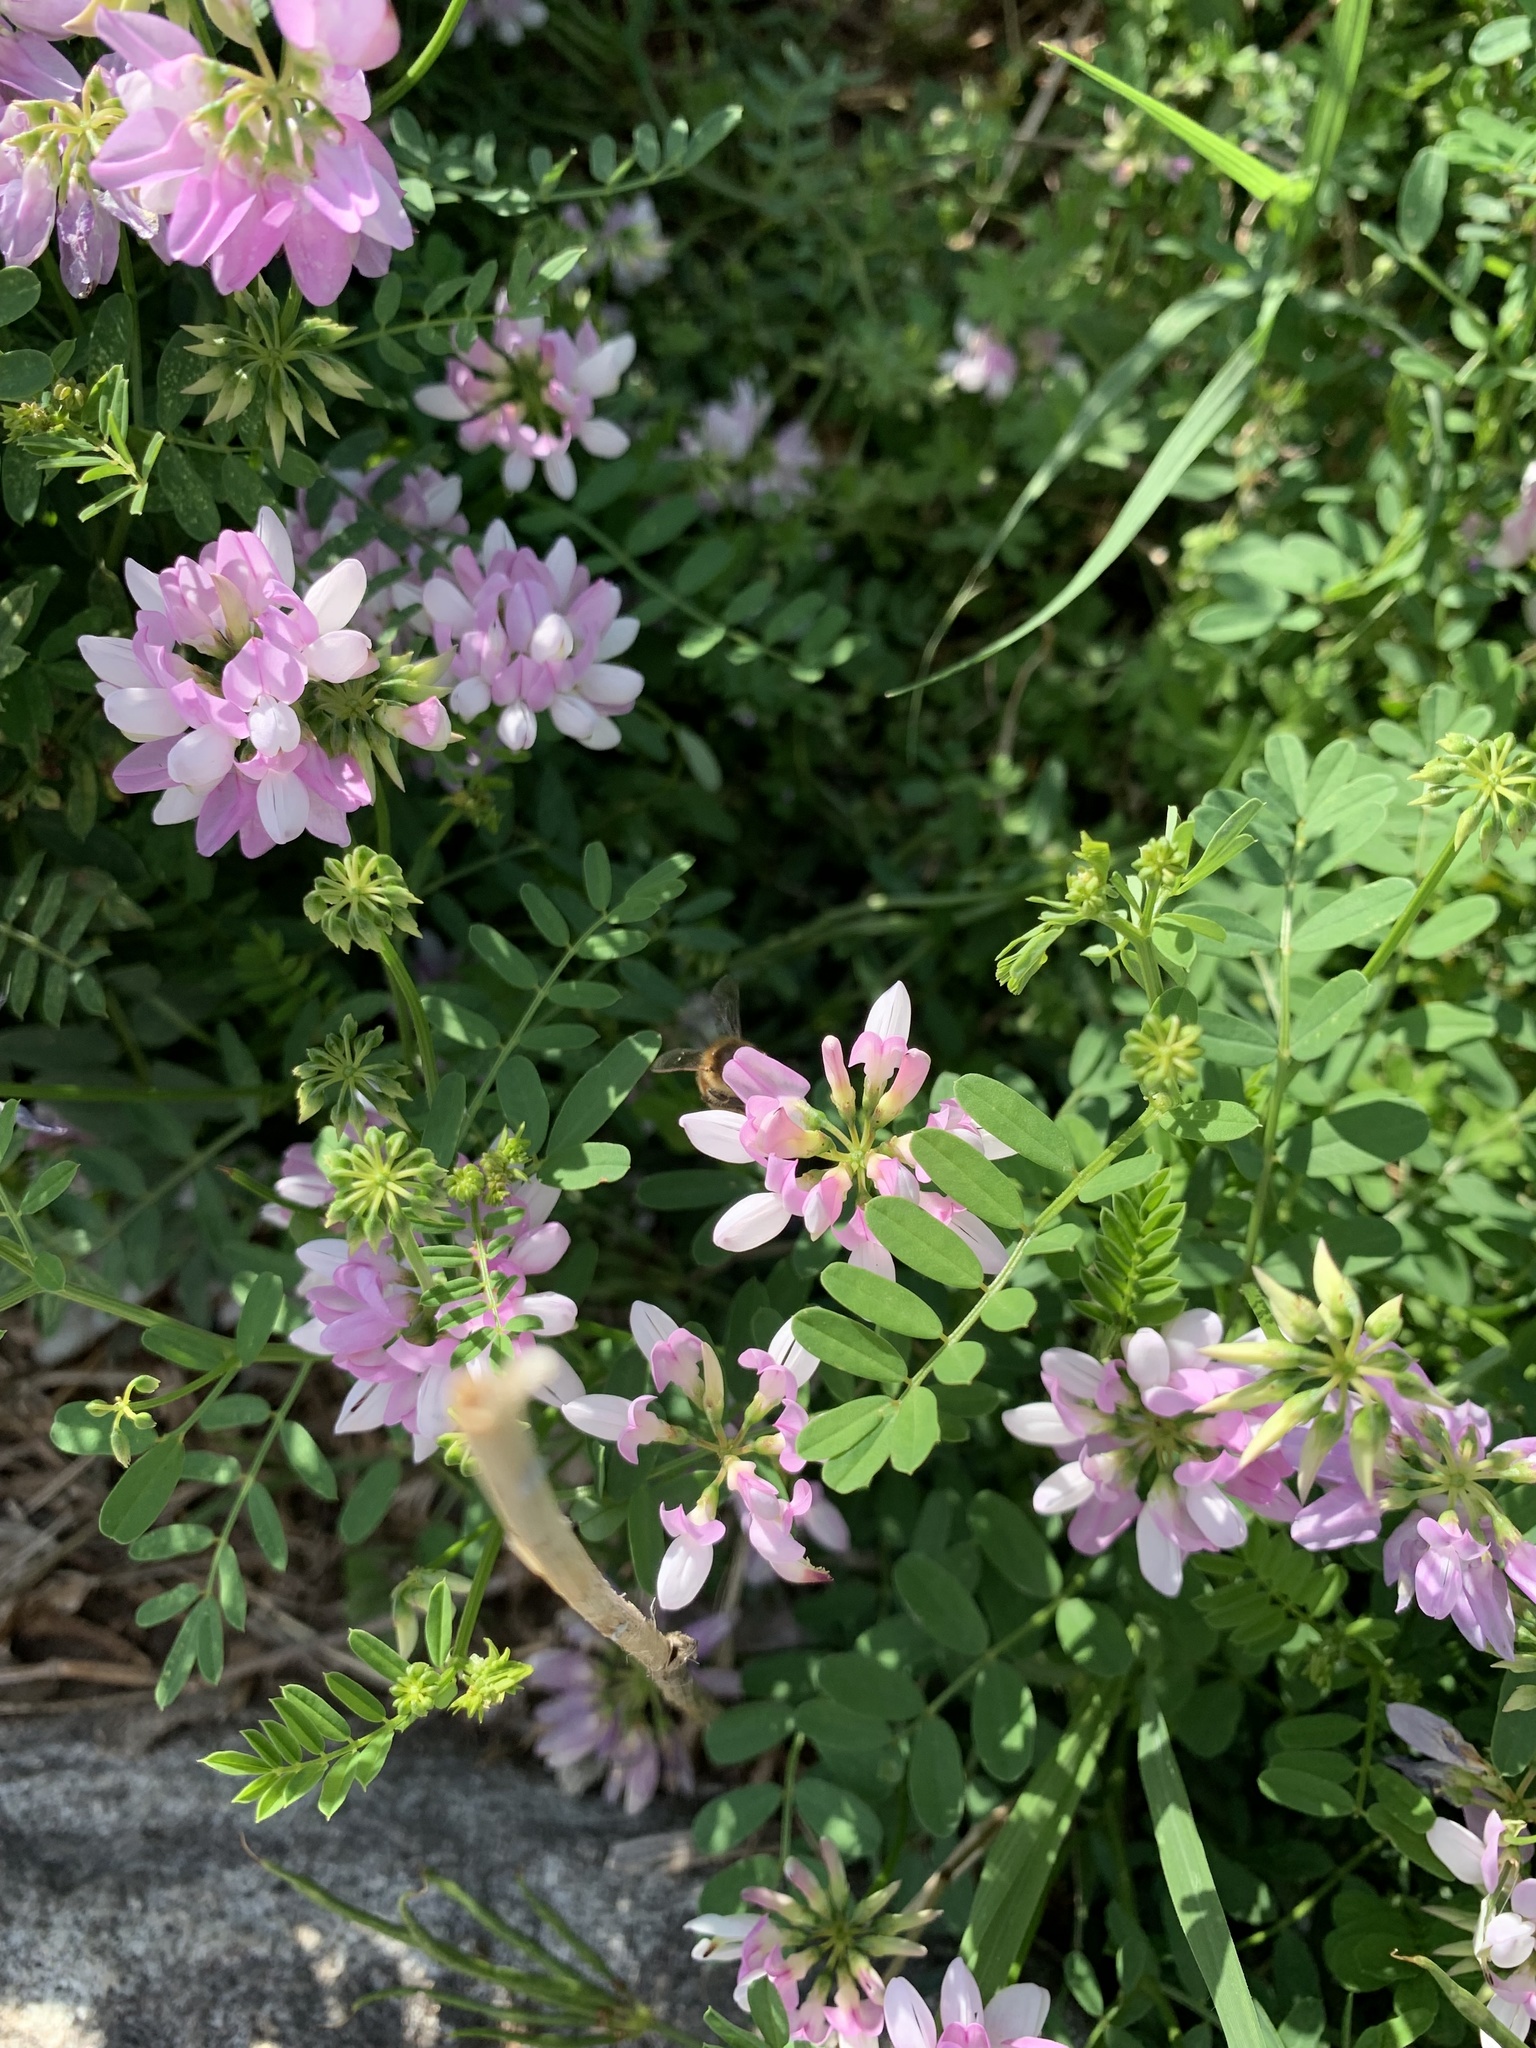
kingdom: Plantae
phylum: Tracheophyta
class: Magnoliopsida
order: Fabales
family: Fabaceae
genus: Coronilla
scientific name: Coronilla varia
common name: Crownvetch
